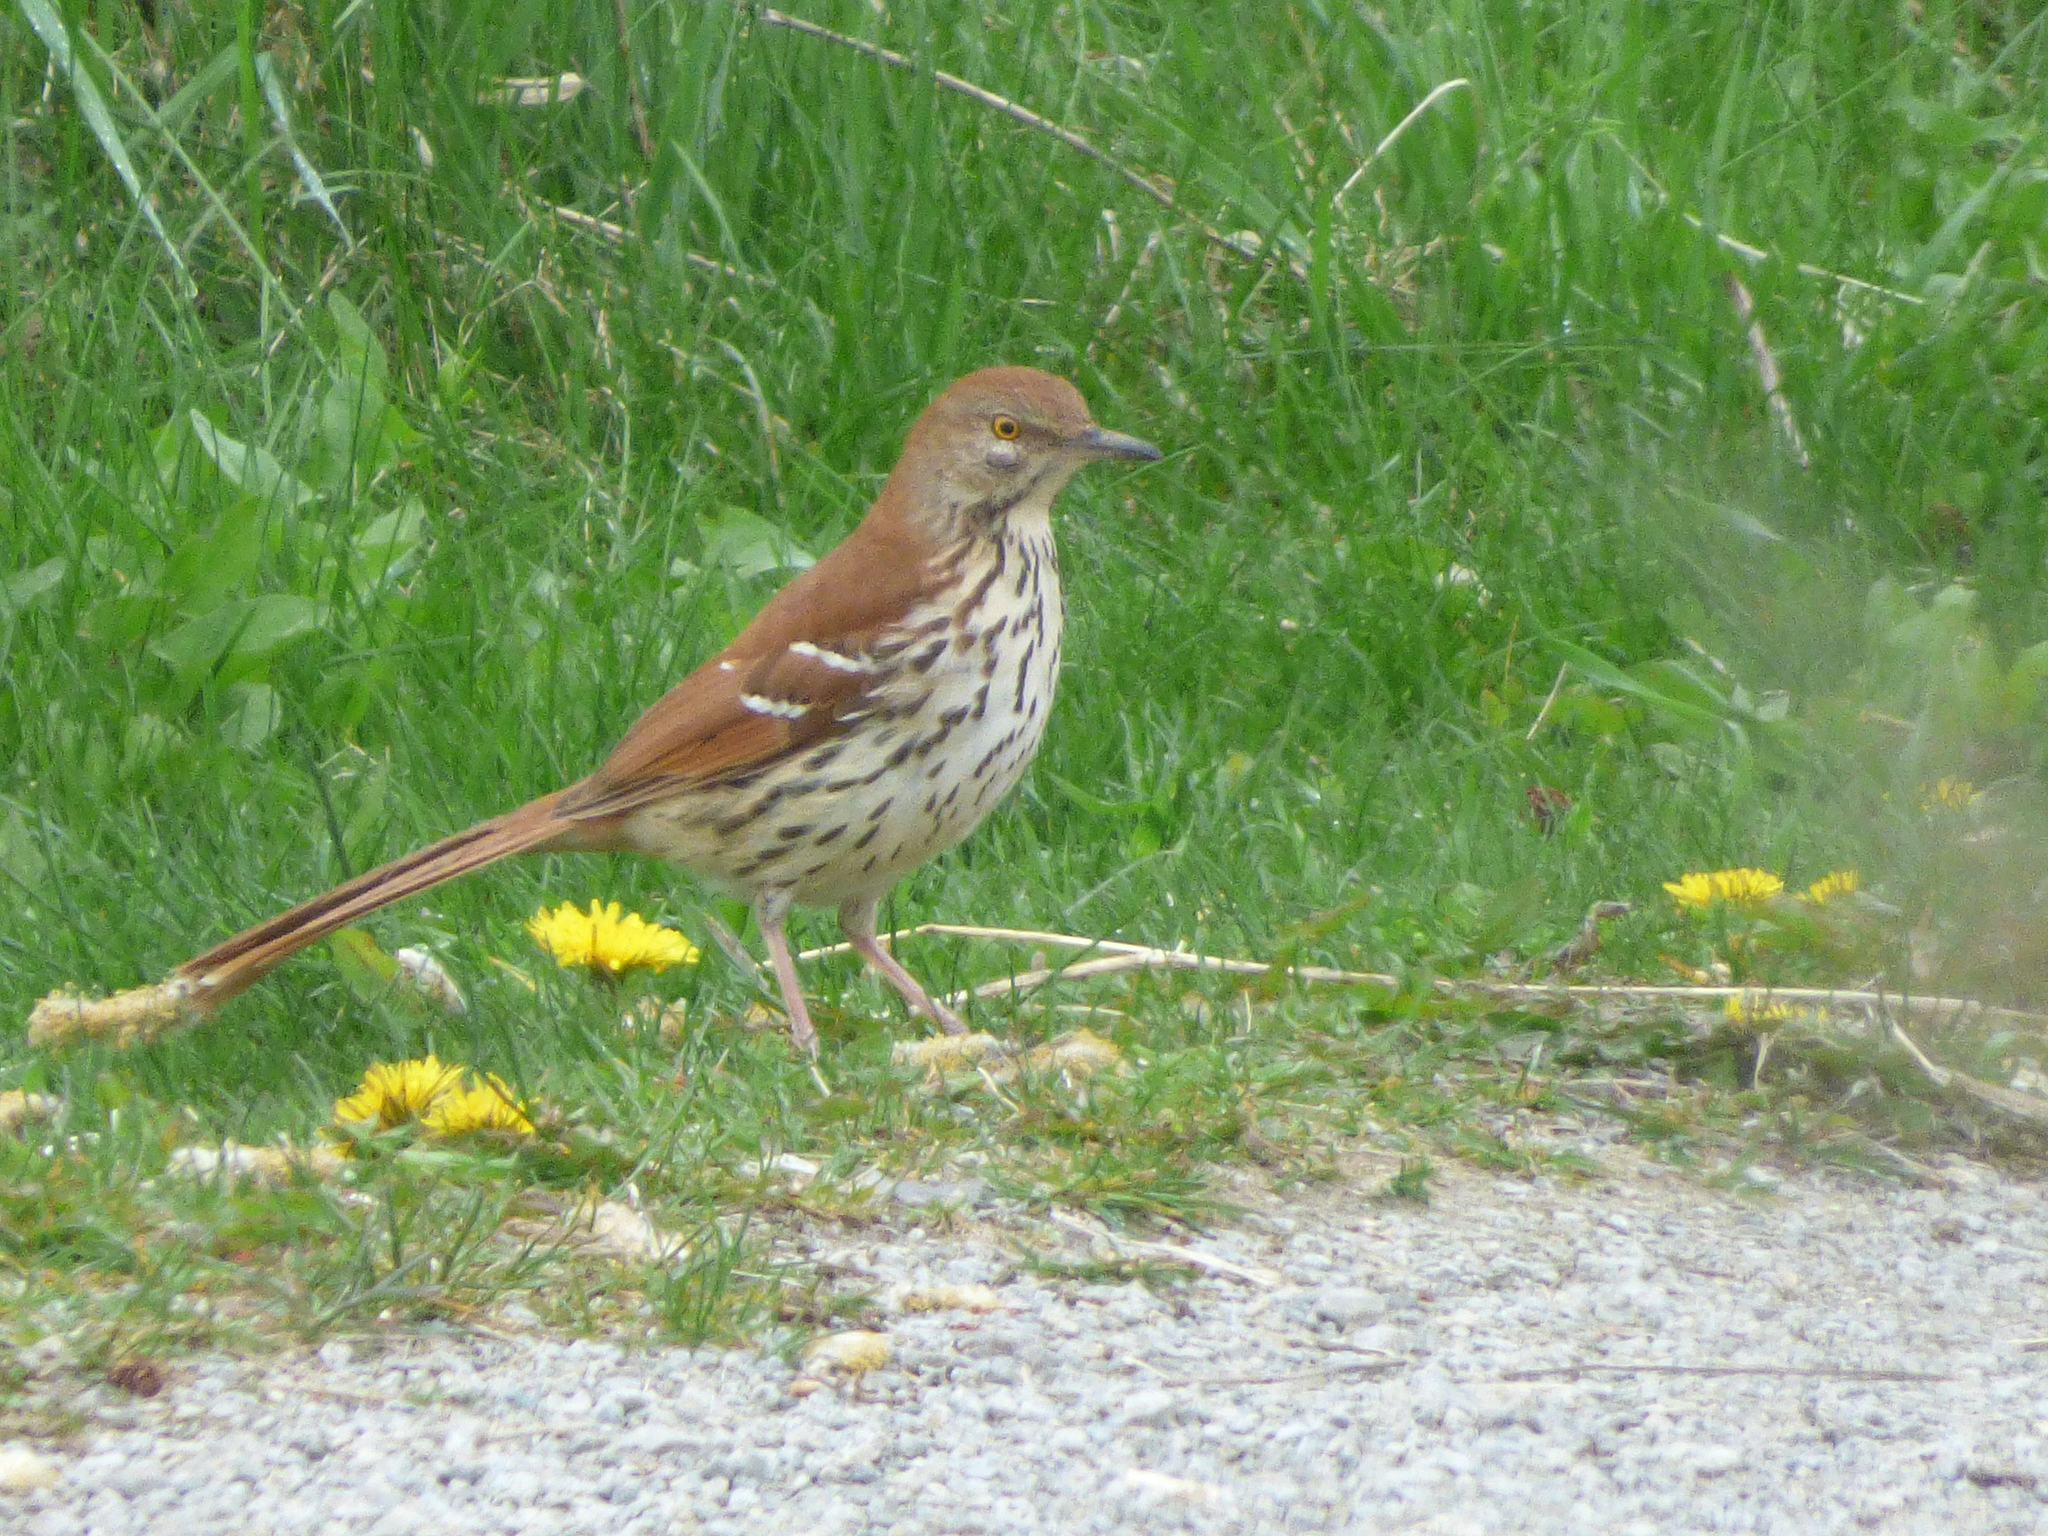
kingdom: Animalia
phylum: Chordata
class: Aves
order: Passeriformes
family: Mimidae
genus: Toxostoma
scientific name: Toxostoma rufum
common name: Brown thrasher
